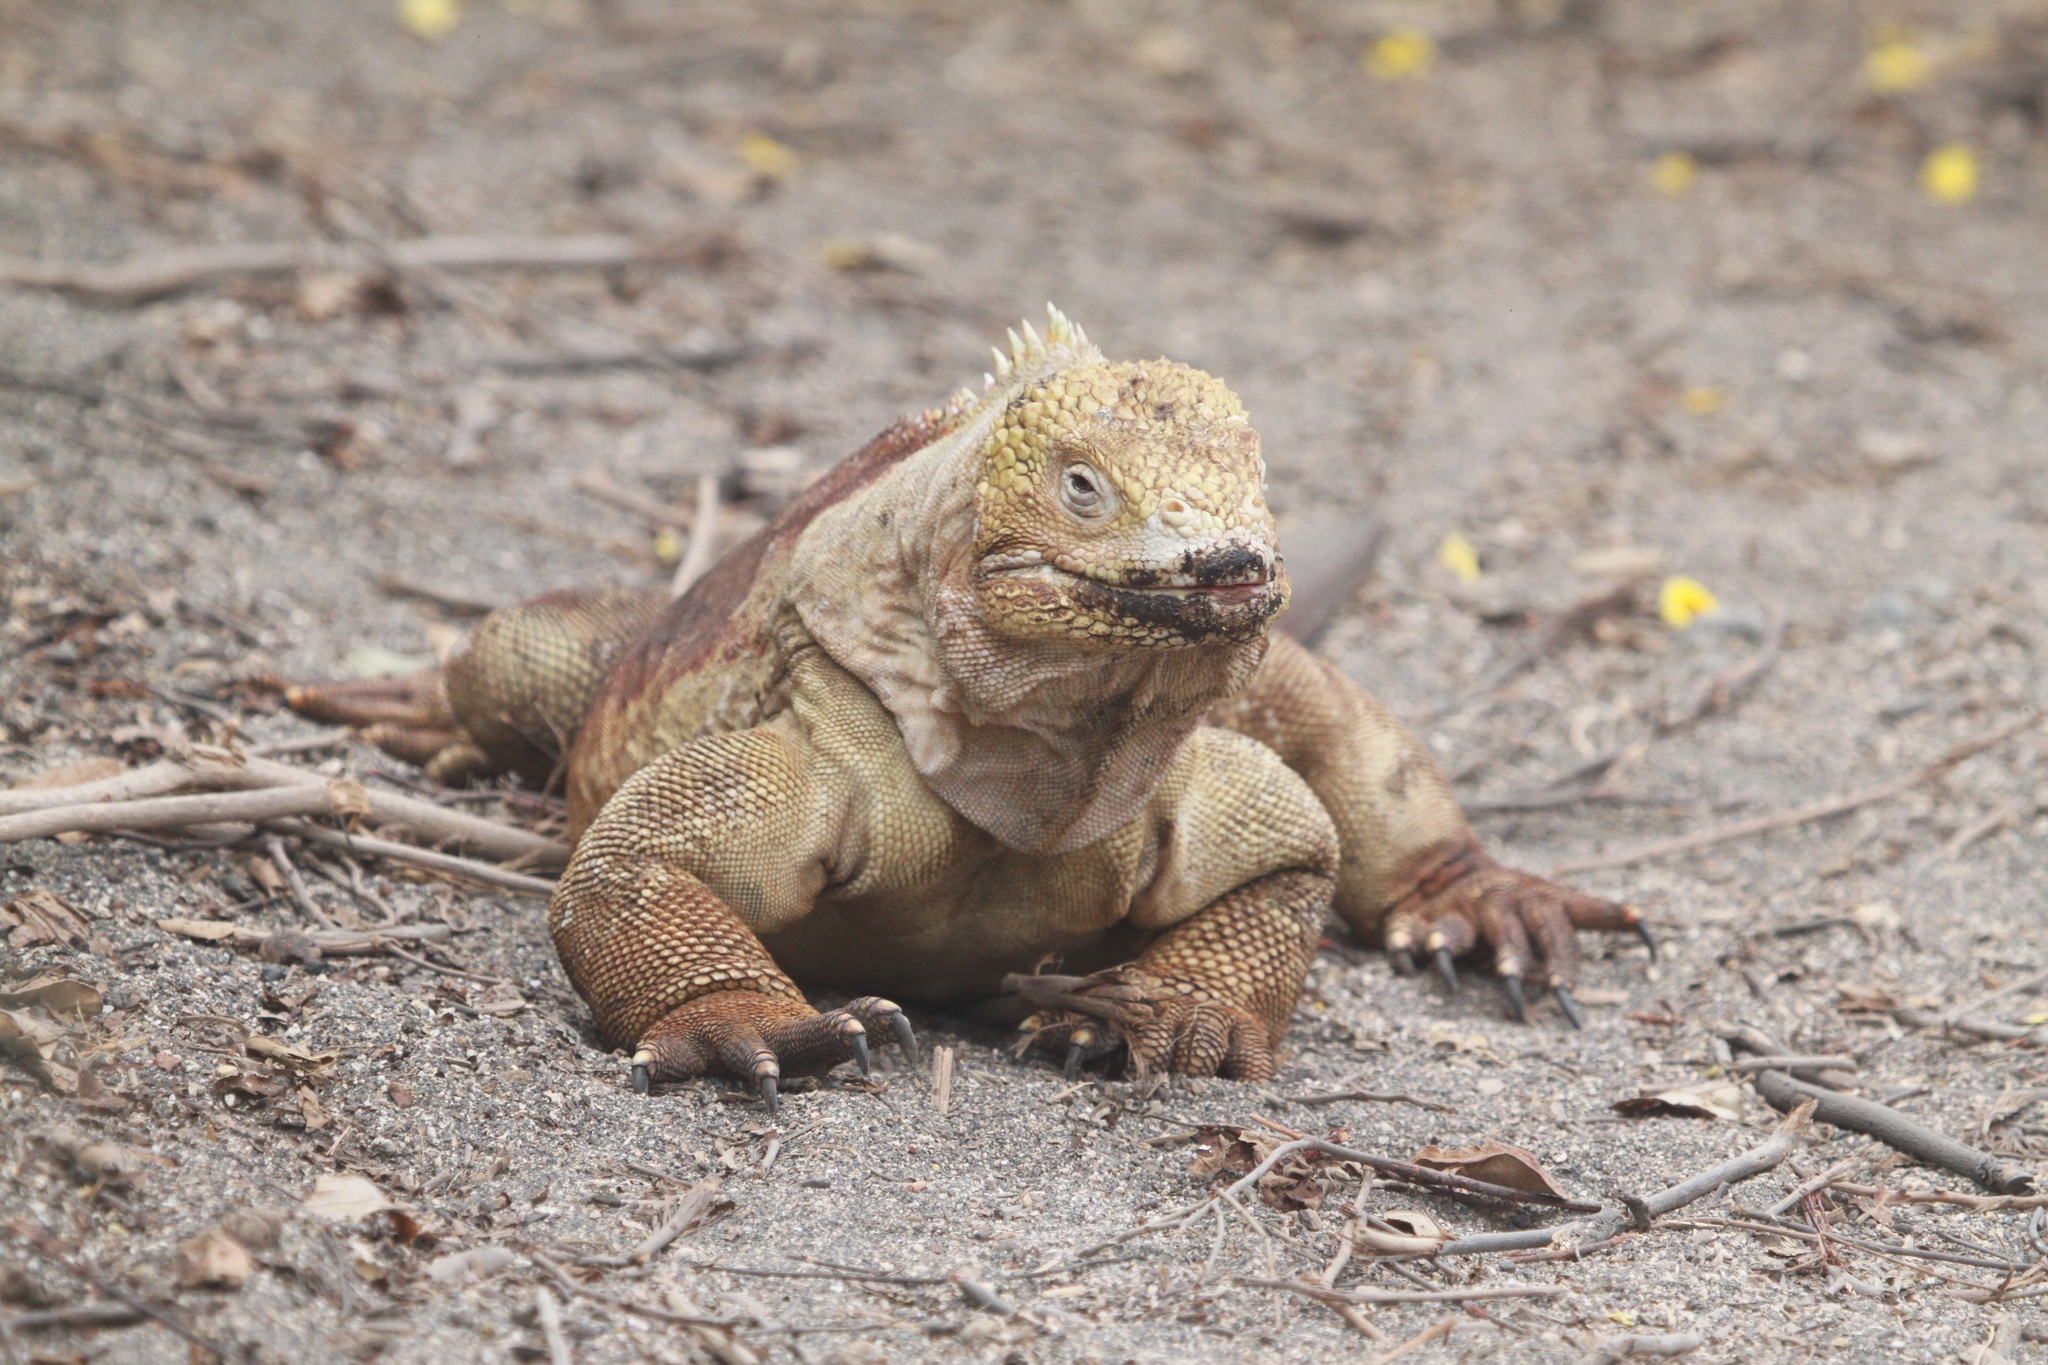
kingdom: Animalia
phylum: Chordata
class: Squamata
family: Iguanidae
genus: Conolophus
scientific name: Conolophus subcristatus
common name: Galapagos land iguana
